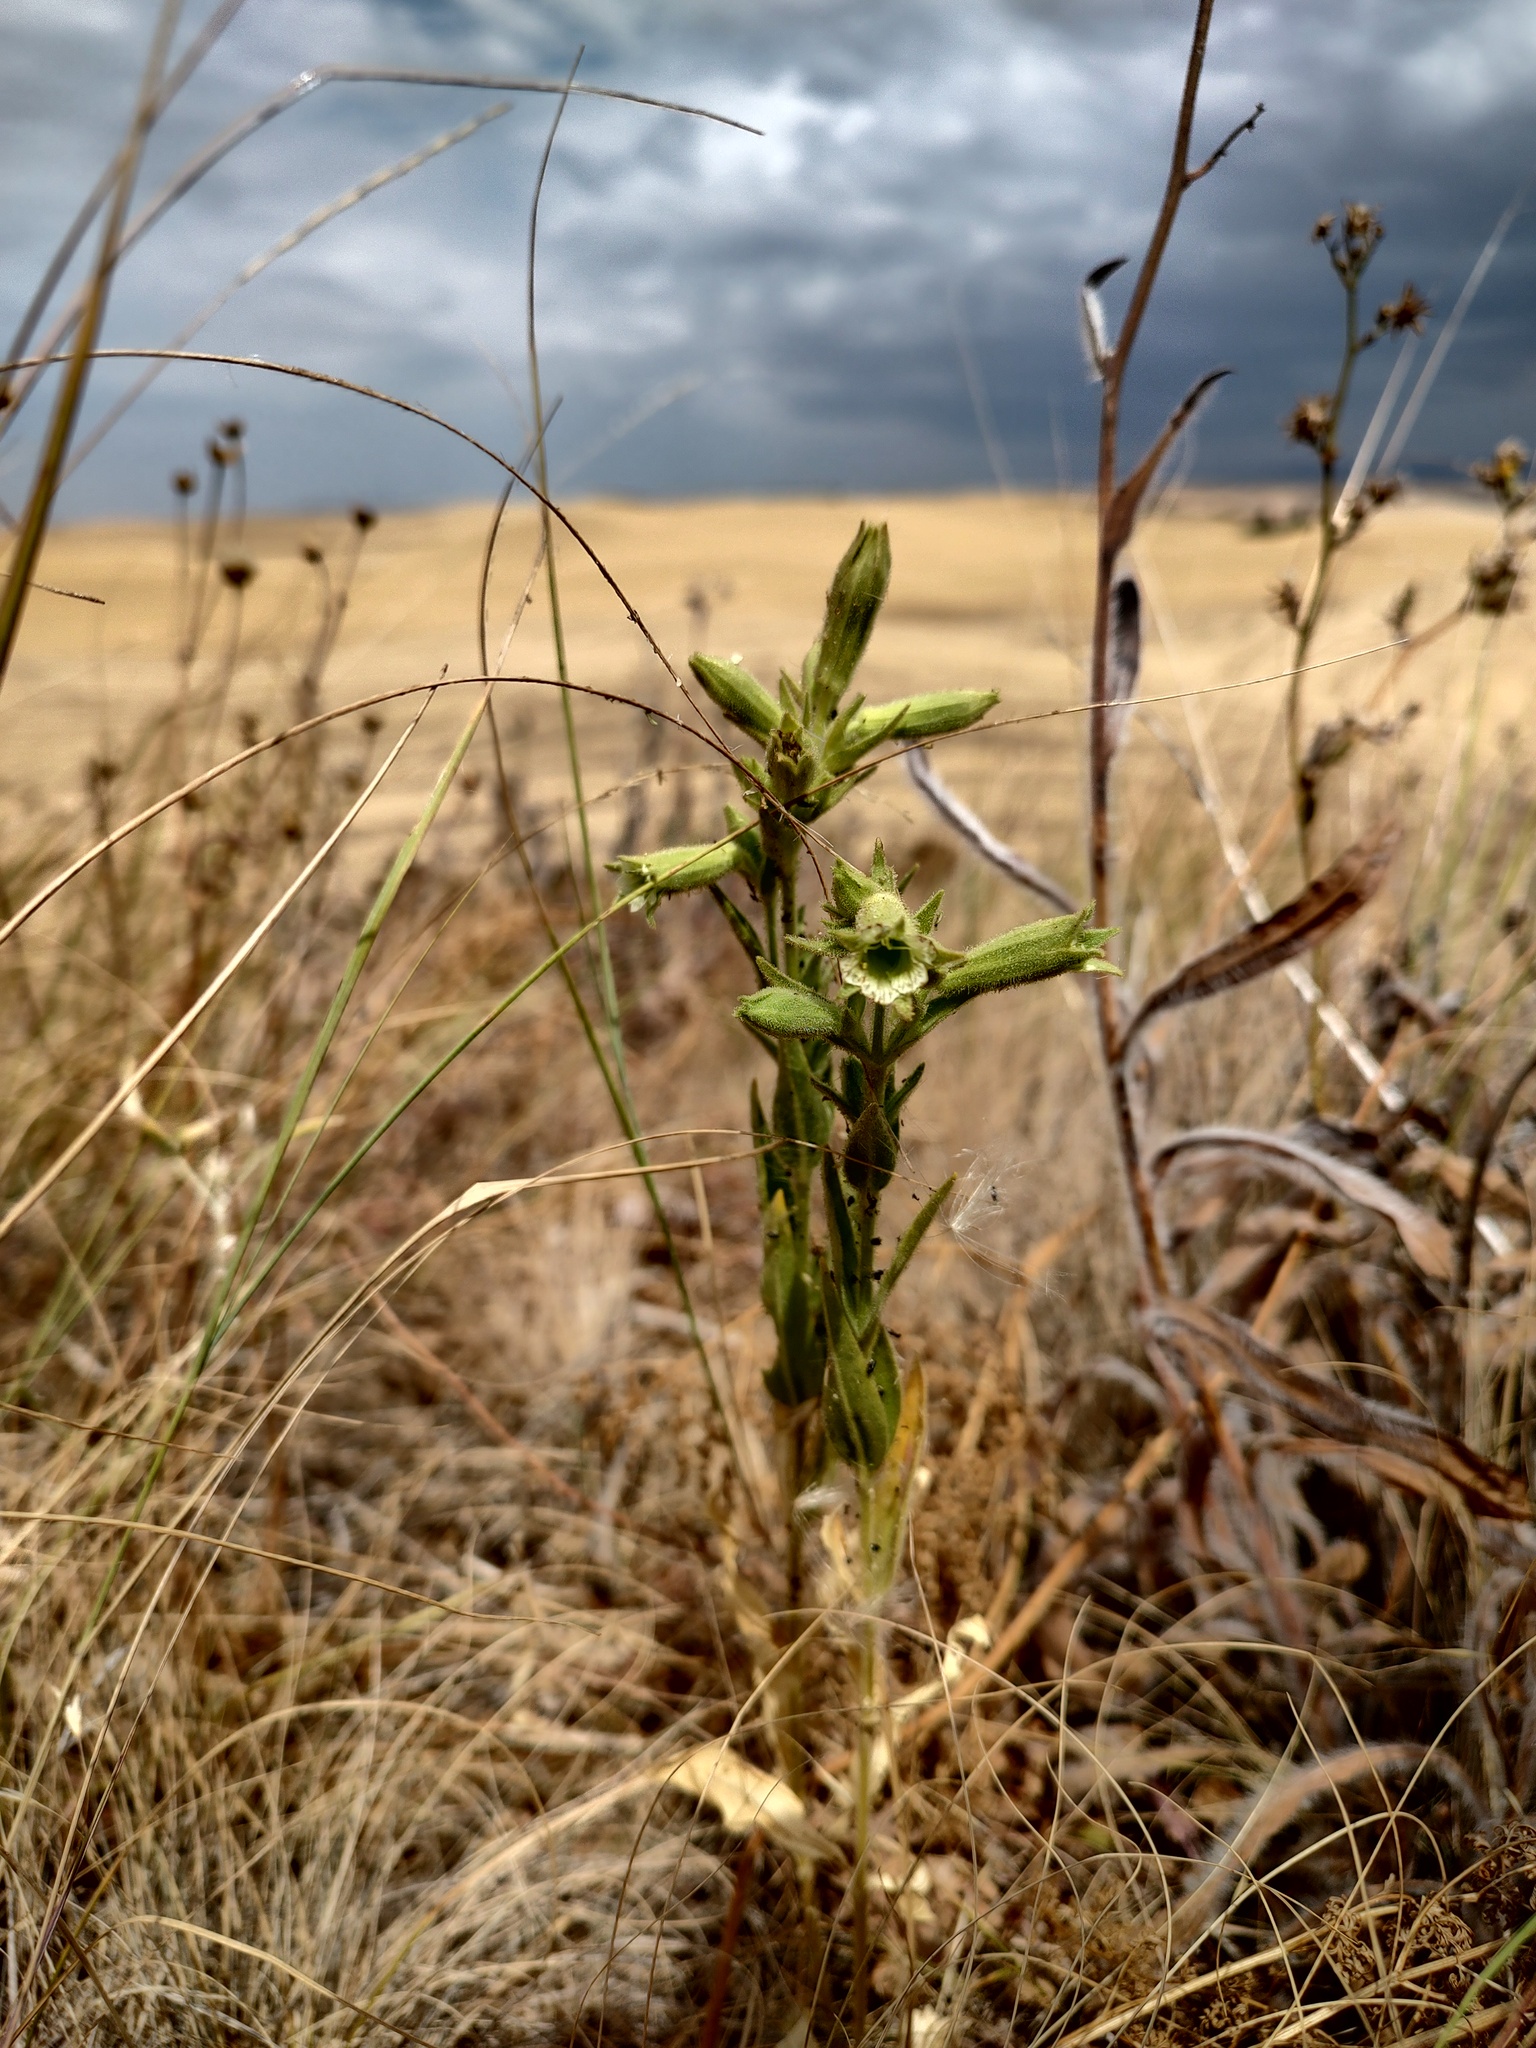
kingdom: Plantae
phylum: Tracheophyta
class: Magnoliopsida
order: Caryophyllales
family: Caryophyllaceae
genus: Silene
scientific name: Silene spaldingii
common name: Spalding's campion
